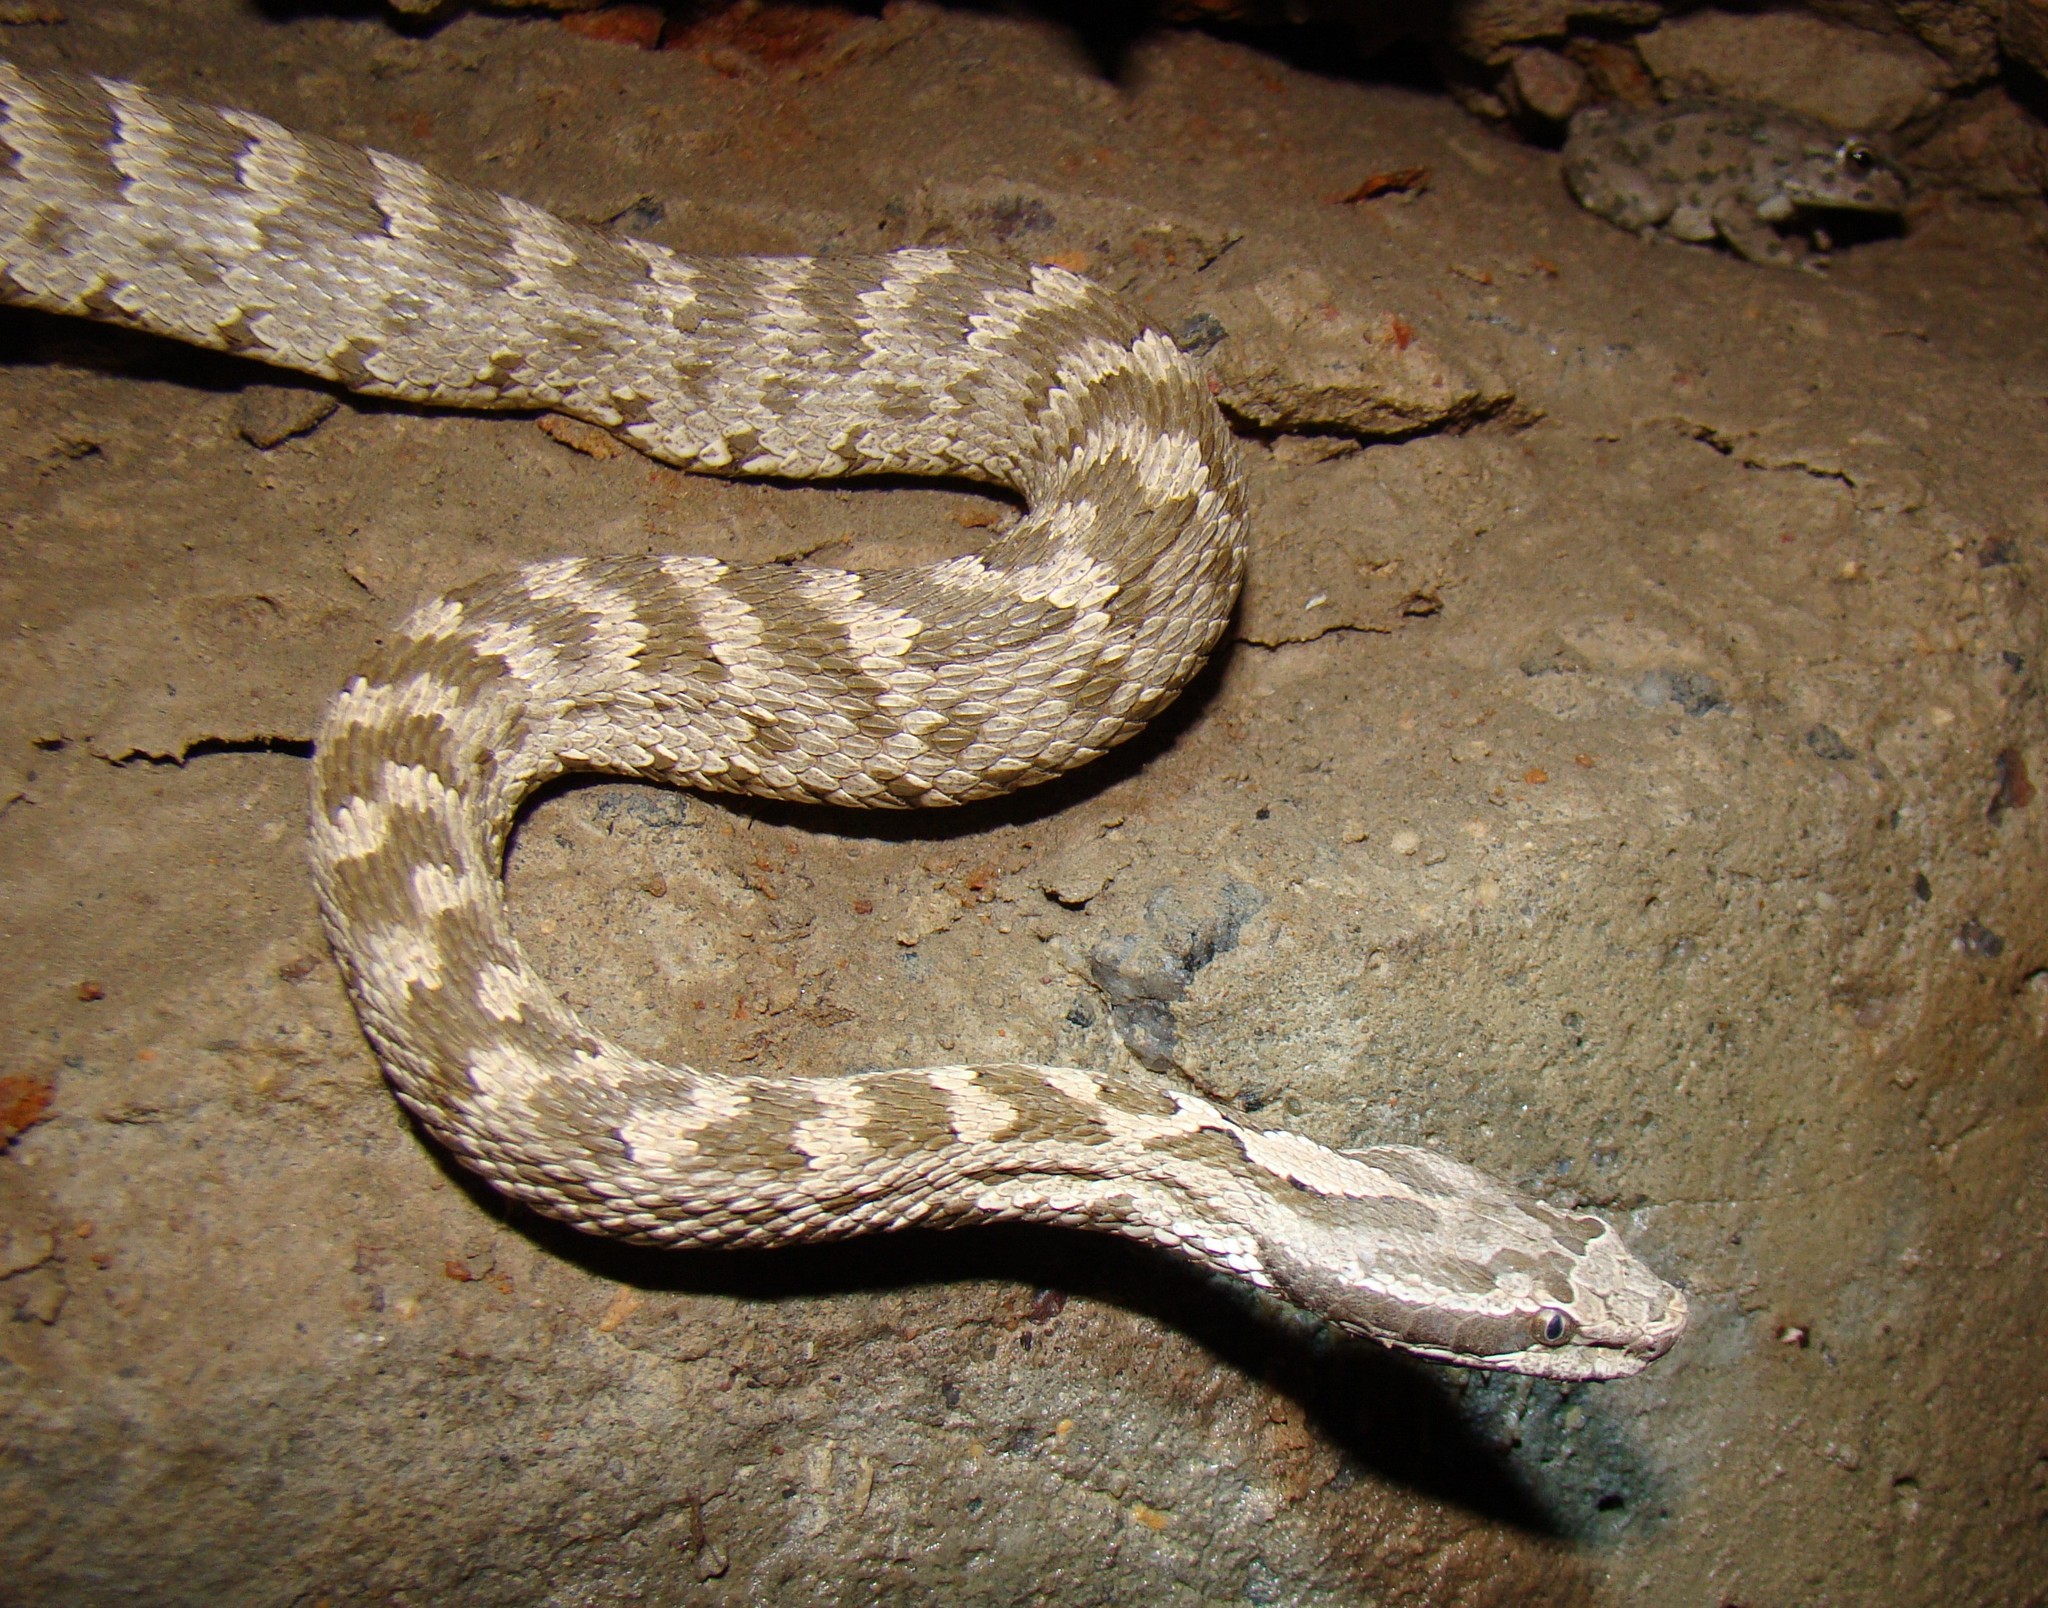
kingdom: Animalia
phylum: Chordata
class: Squamata
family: Viperidae
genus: Gloydius
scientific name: Gloydius caraganus
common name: Karaganda pitviper
